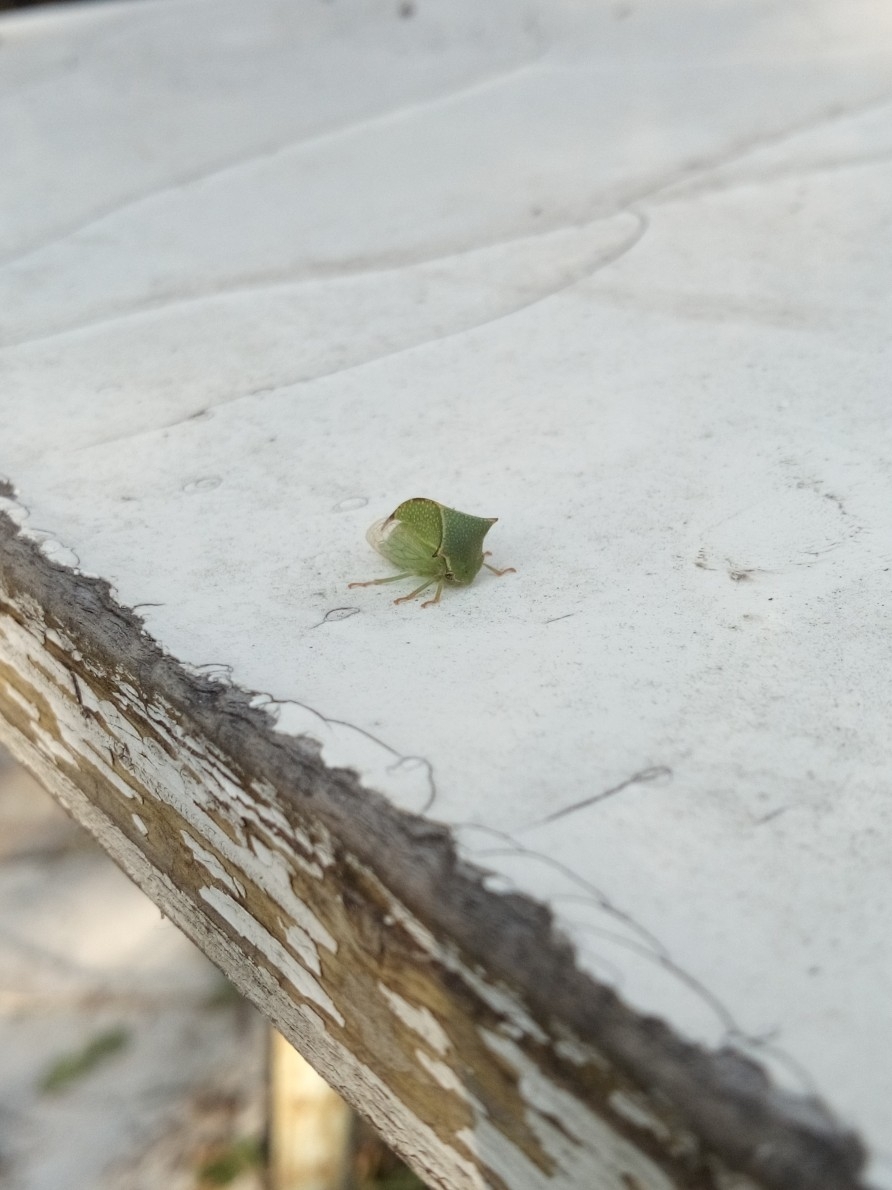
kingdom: Animalia
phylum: Arthropoda
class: Insecta
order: Hemiptera
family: Membracidae
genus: Stictocephala
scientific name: Stictocephala bisonia
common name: American buffalo treehopper
